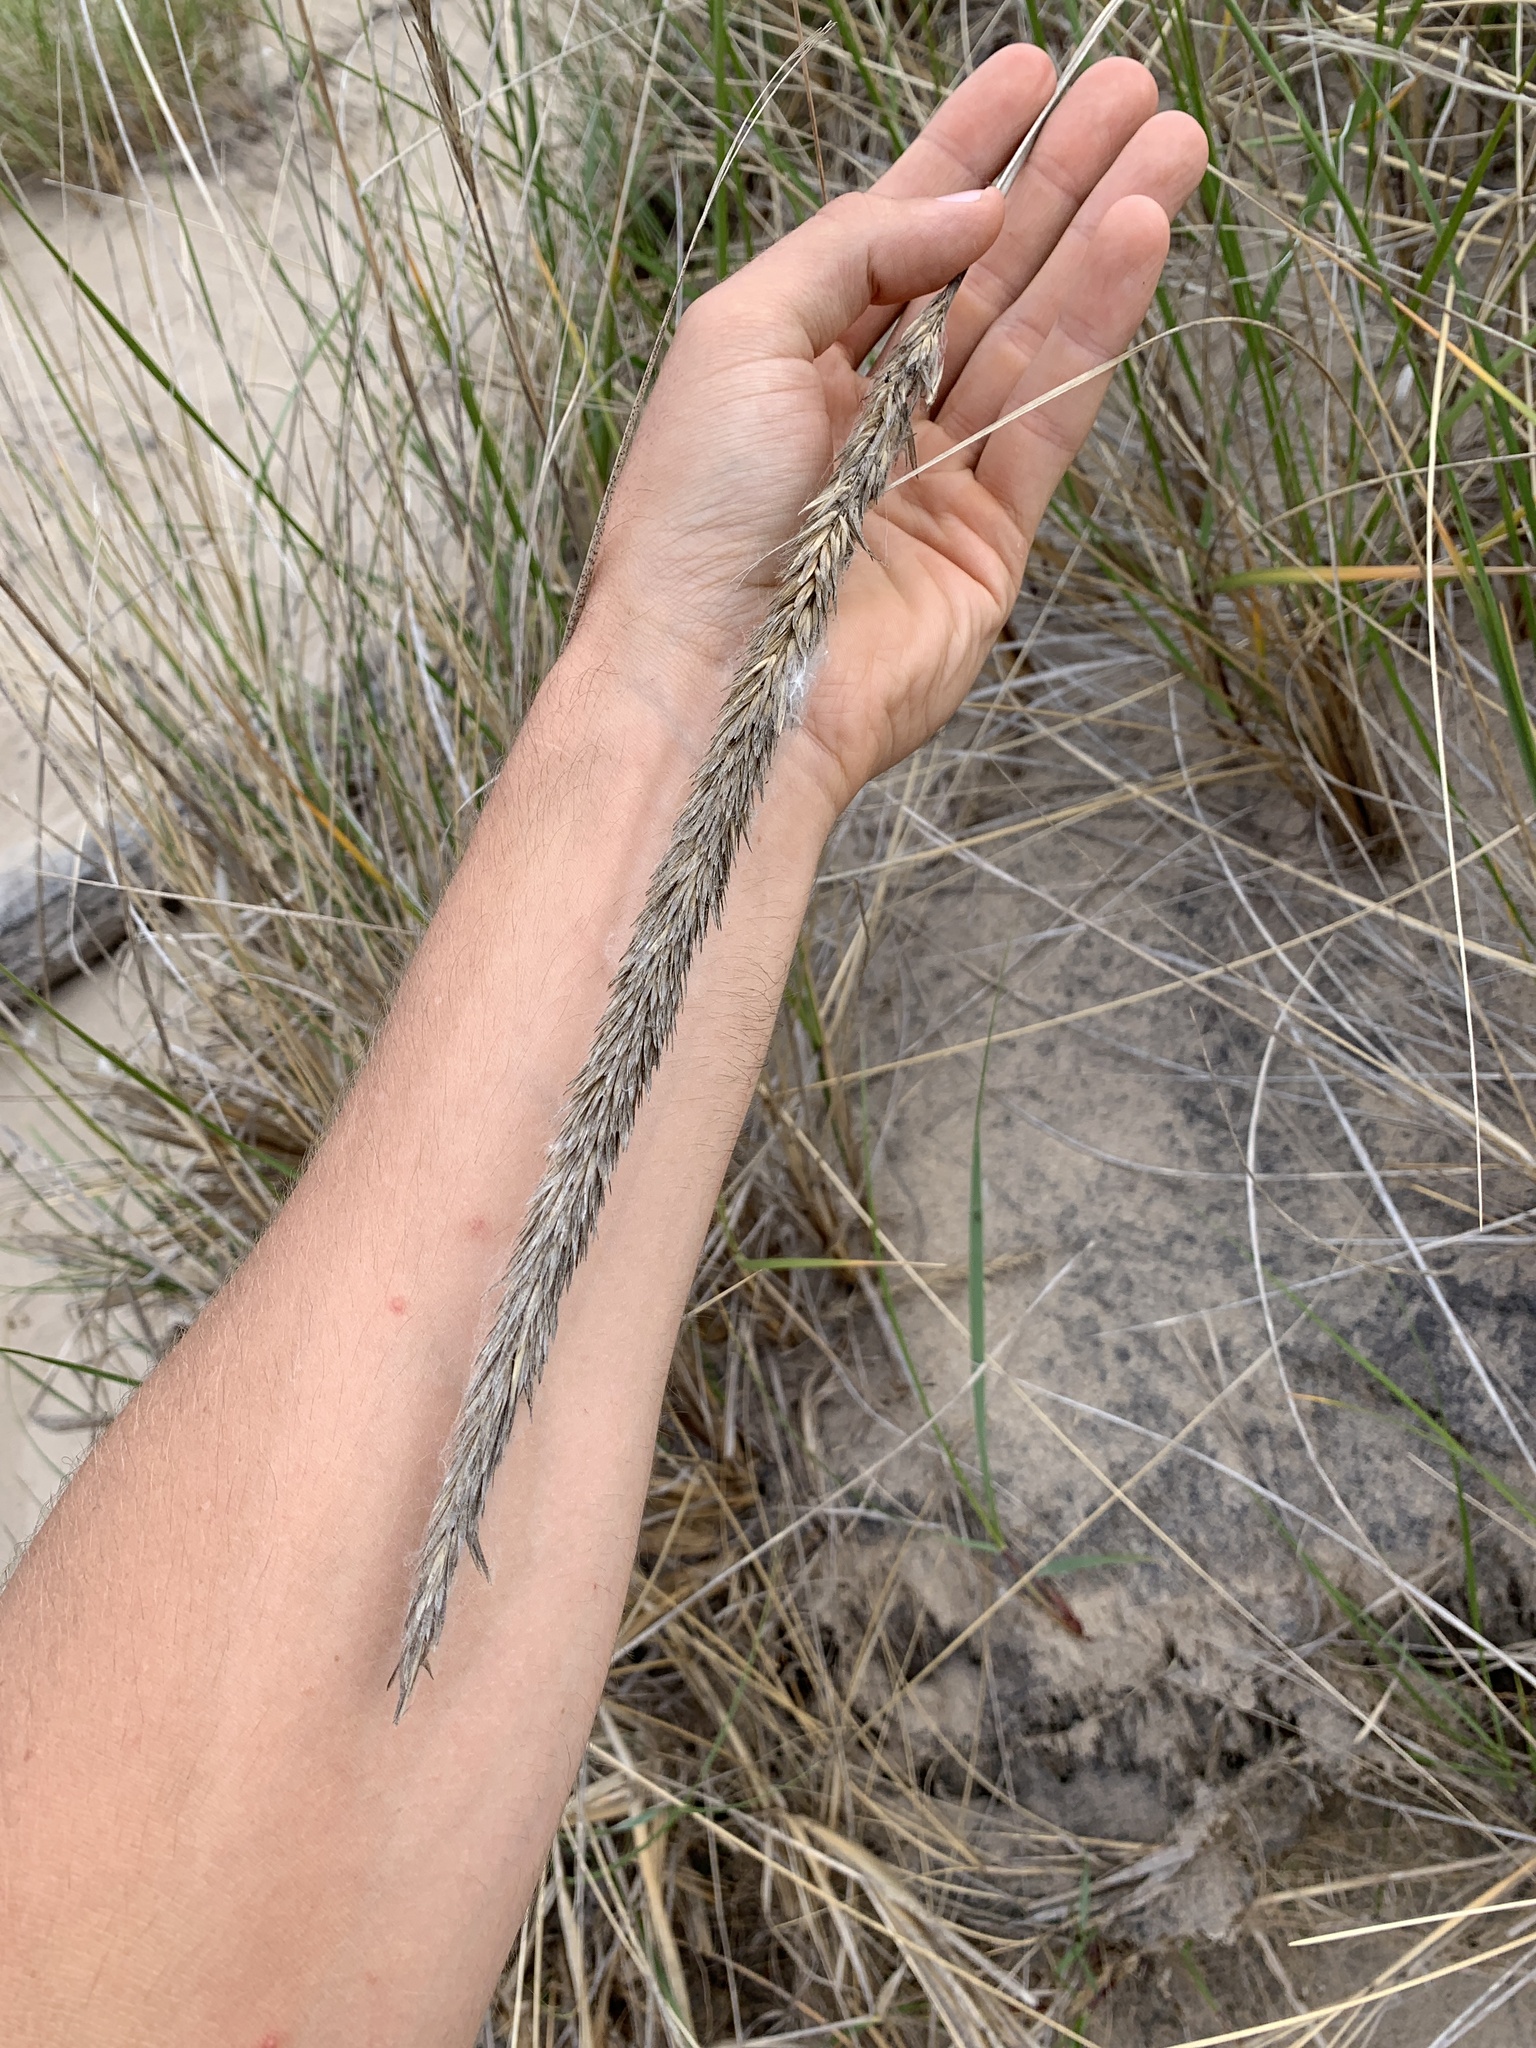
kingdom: Plantae
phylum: Tracheophyta
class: Liliopsida
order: Poales
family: Poaceae
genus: Calamagrostis
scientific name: Calamagrostis breviligulata
